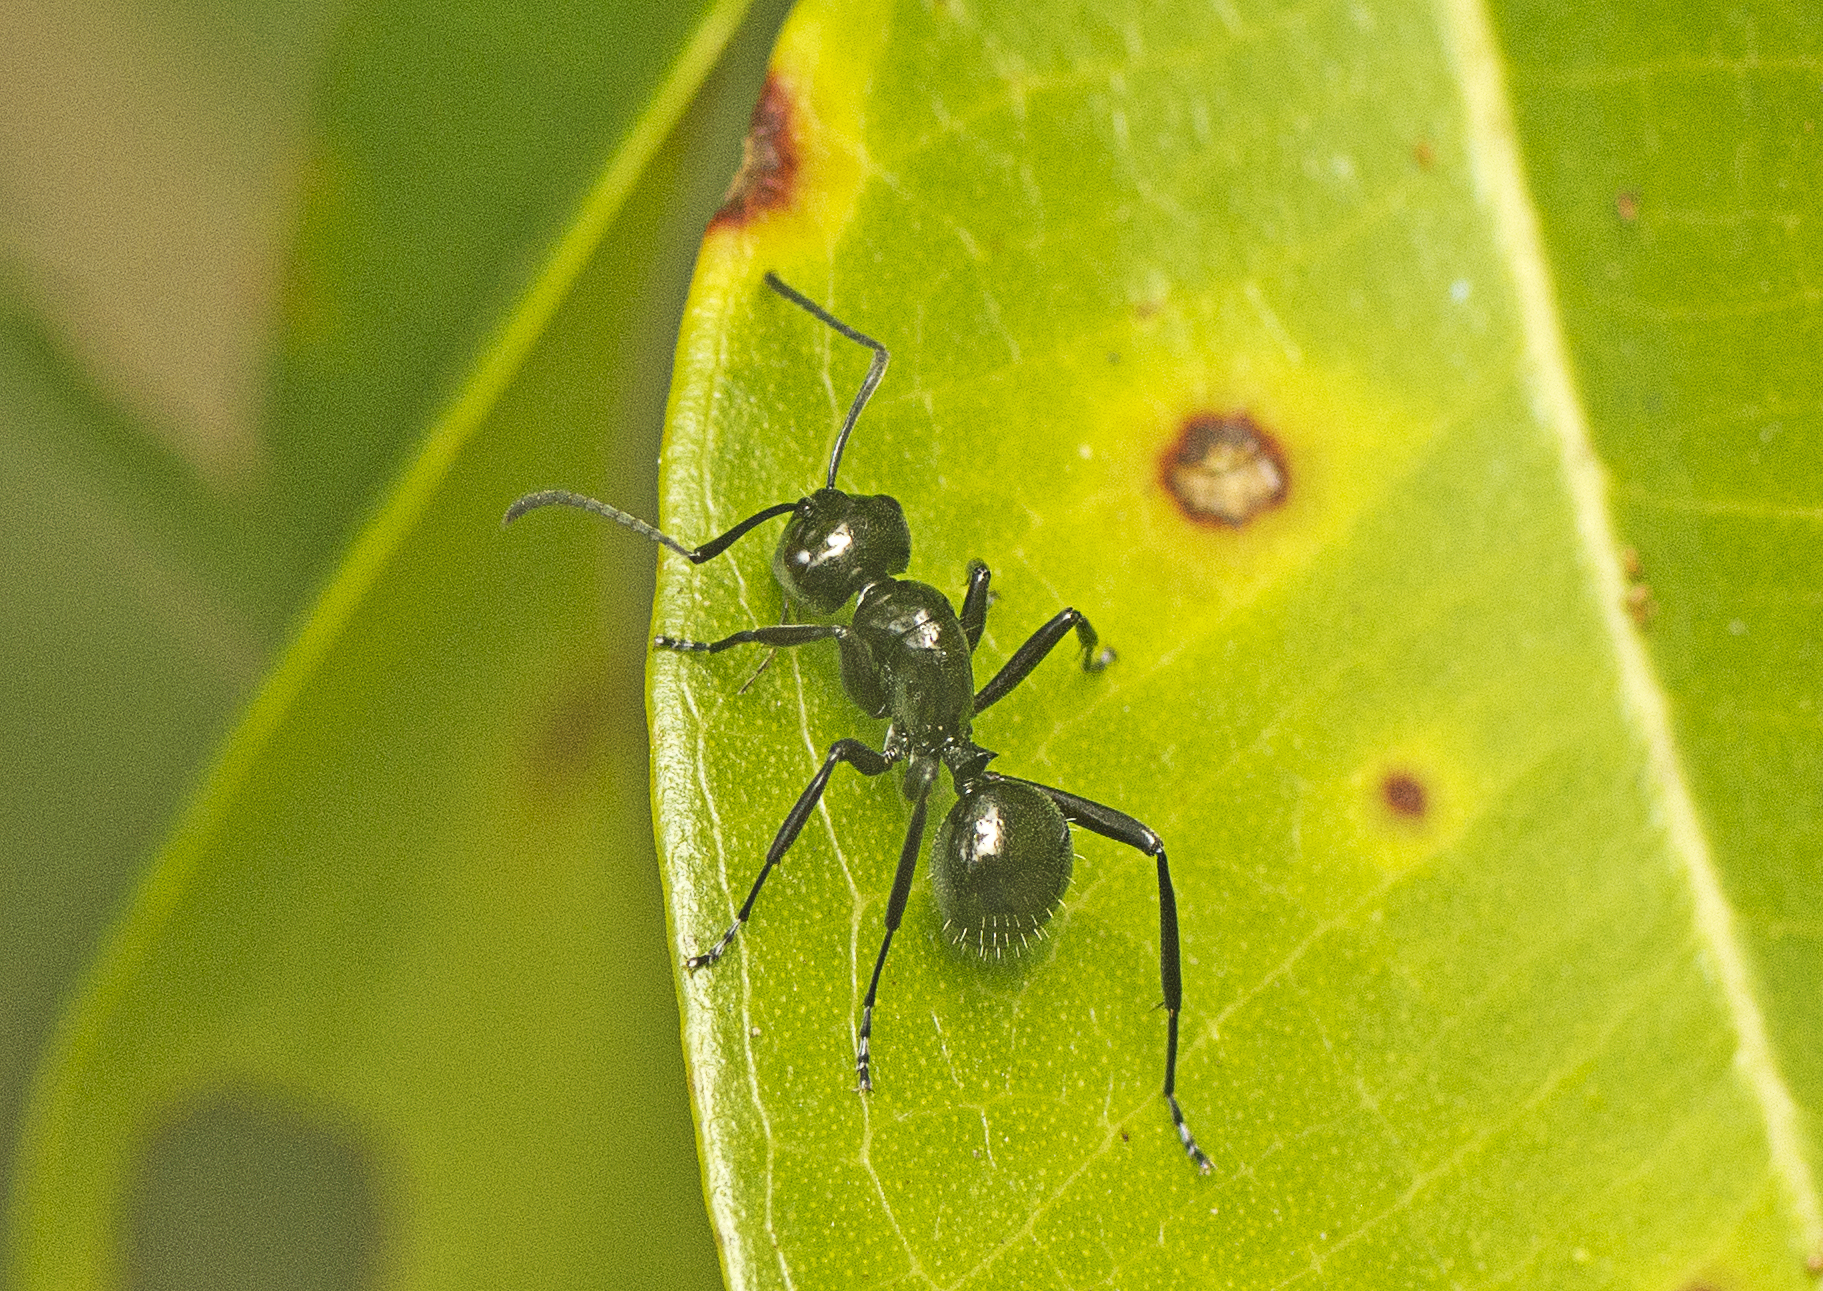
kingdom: Animalia
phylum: Arthropoda
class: Insecta
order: Hymenoptera
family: Formicidae
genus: Polyrhachis
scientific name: Polyrhachis pilosa
